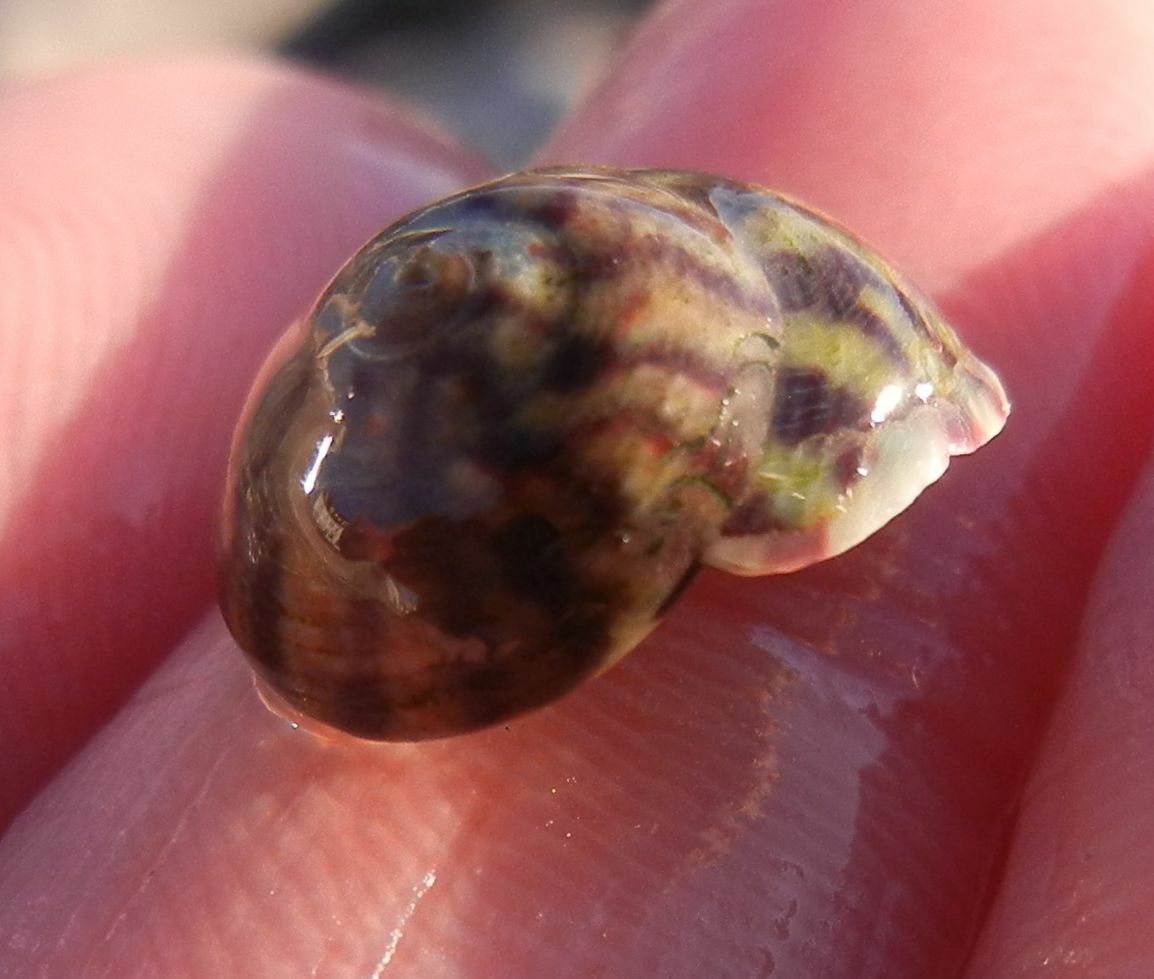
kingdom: Animalia
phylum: Mollusca
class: Gastropoda
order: Trochida
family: Trochidae
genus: Steromphala
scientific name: Steromphala umbilicalis
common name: Flat top shell
